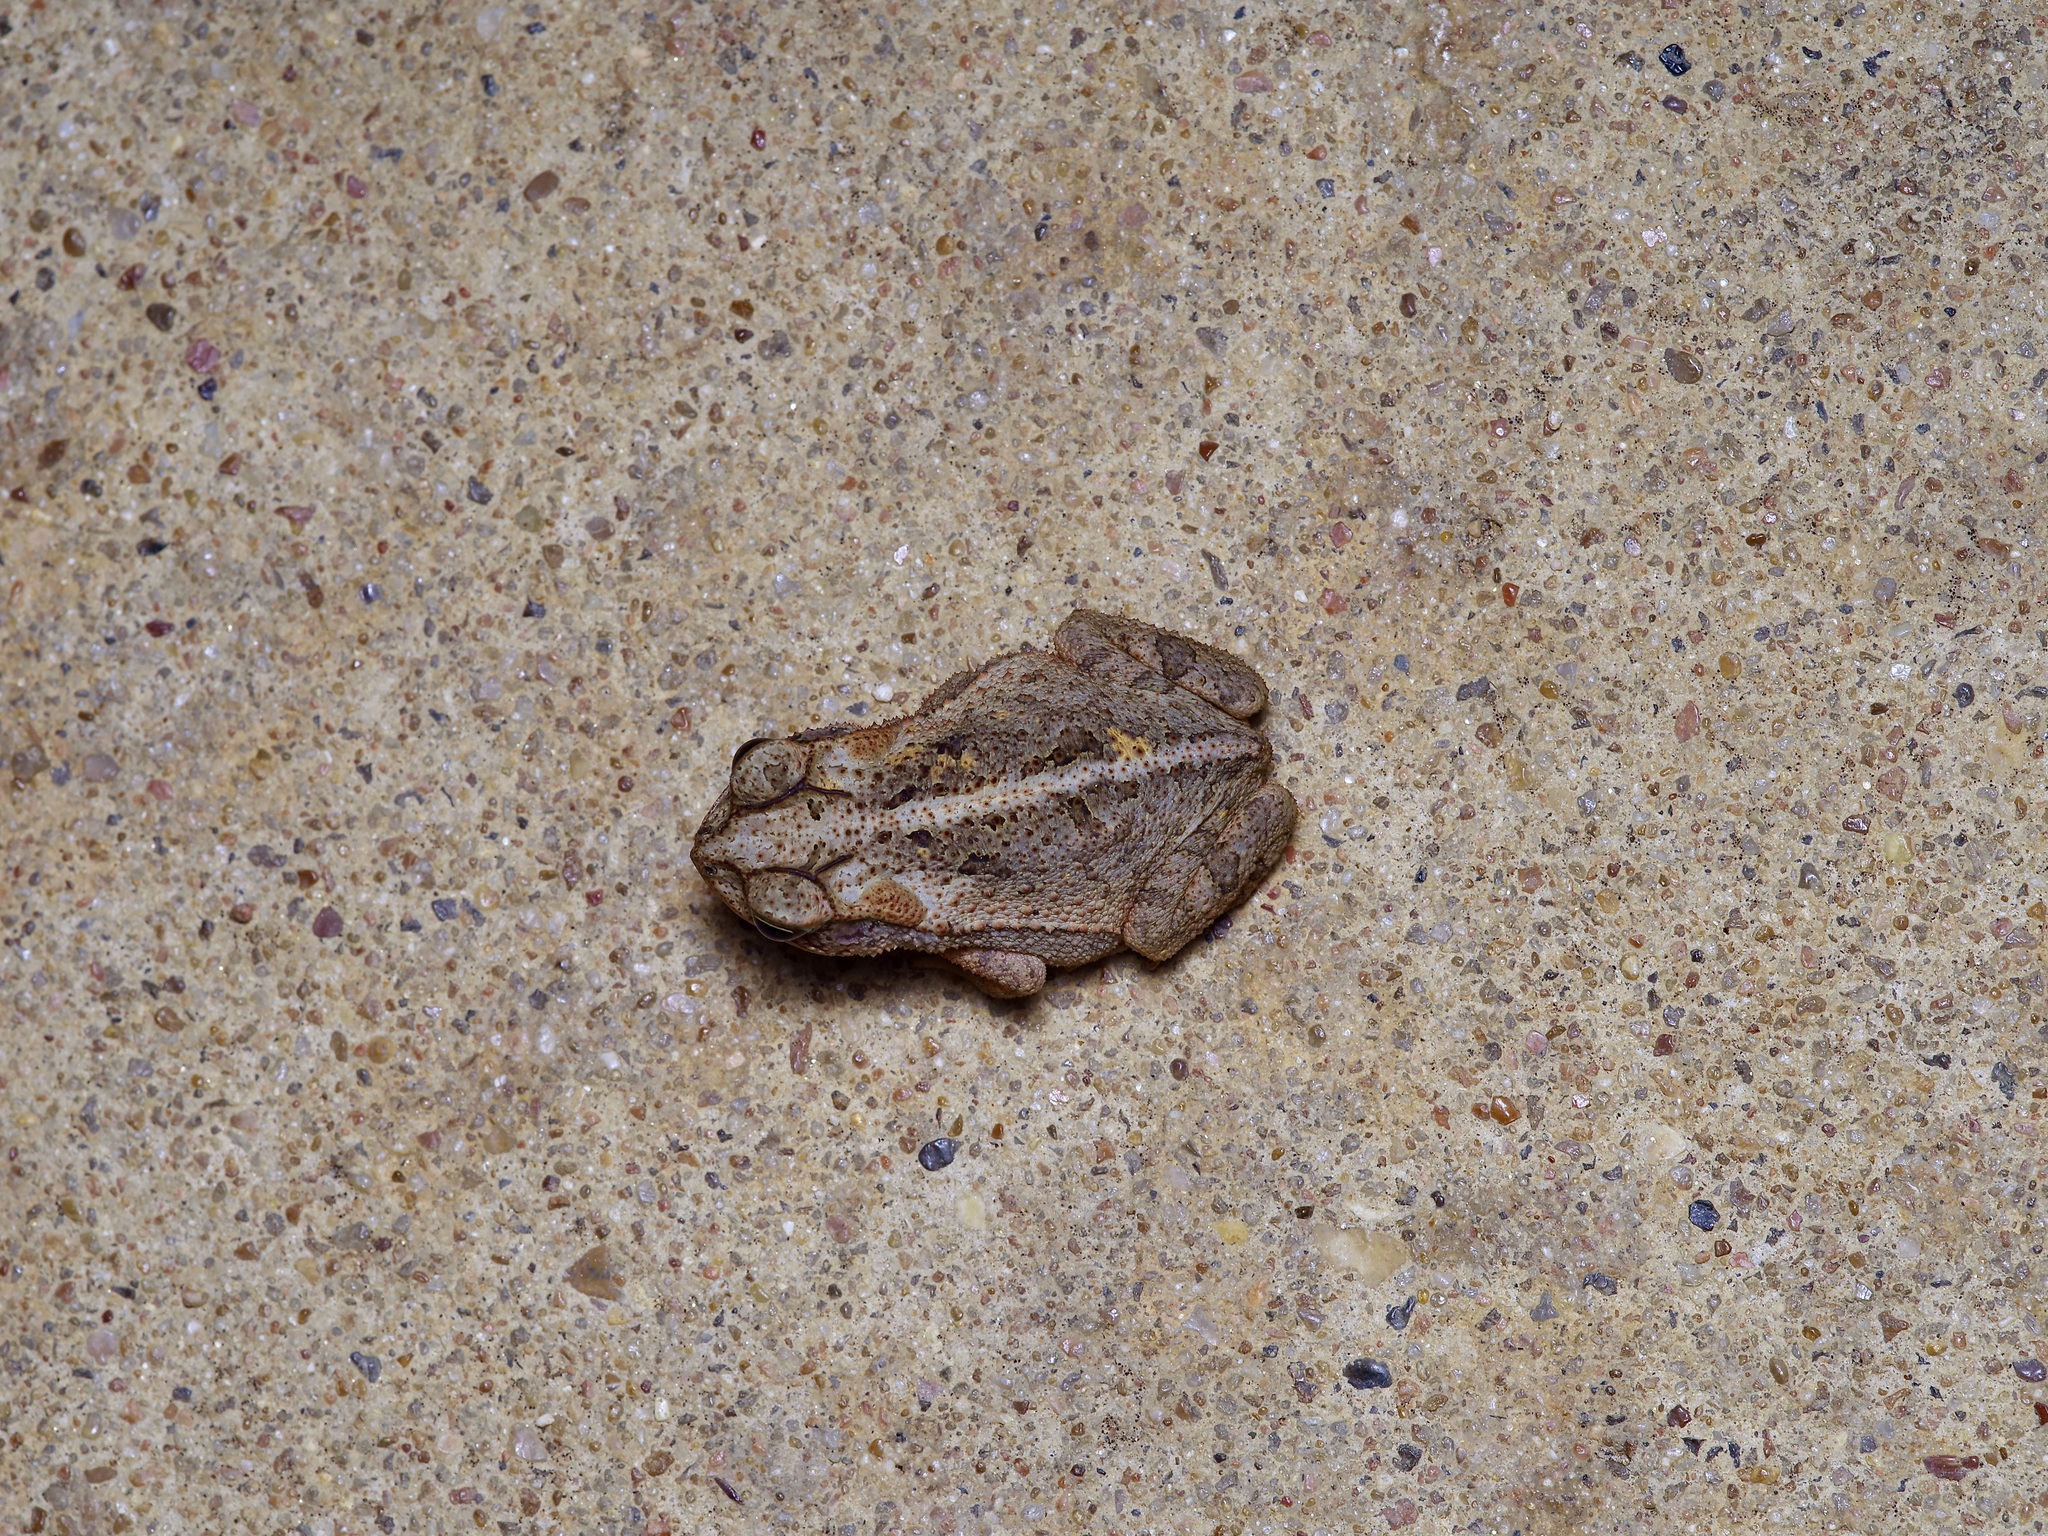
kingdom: Animalia
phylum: Chordata
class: Amphibia
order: Anura
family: Bufonidae
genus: Incilius
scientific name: Incilius nebulifer
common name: Gulf coast toad
